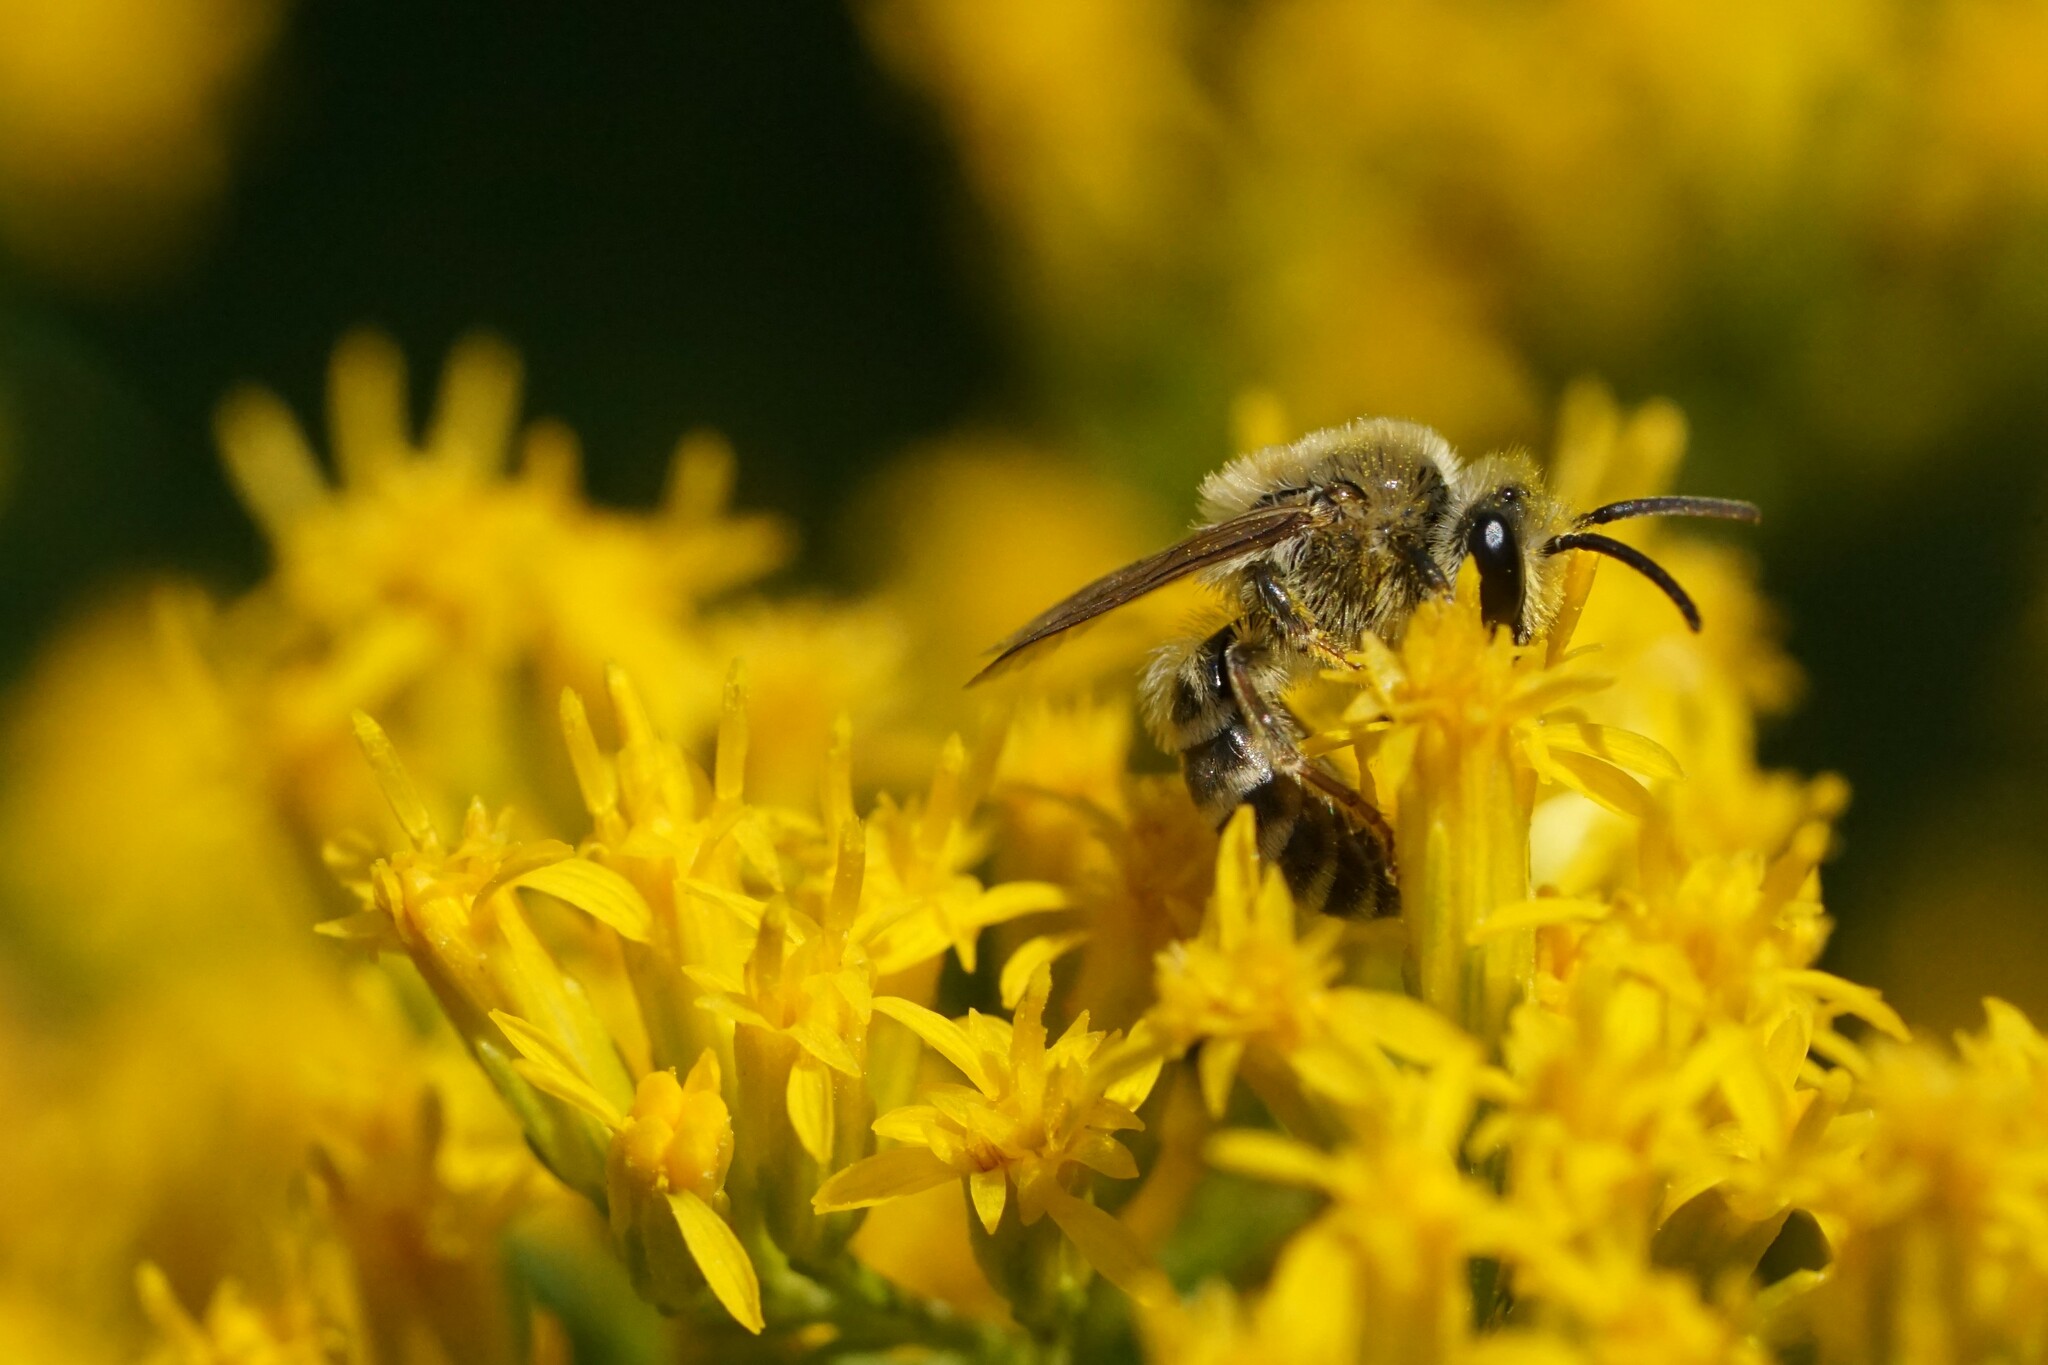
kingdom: Animalia
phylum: Arthropoda
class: Insecta
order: Hymenoptera
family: Colletidae
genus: Colletes
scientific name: Colletes solidaginis
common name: Goldenrod cellophane bee
